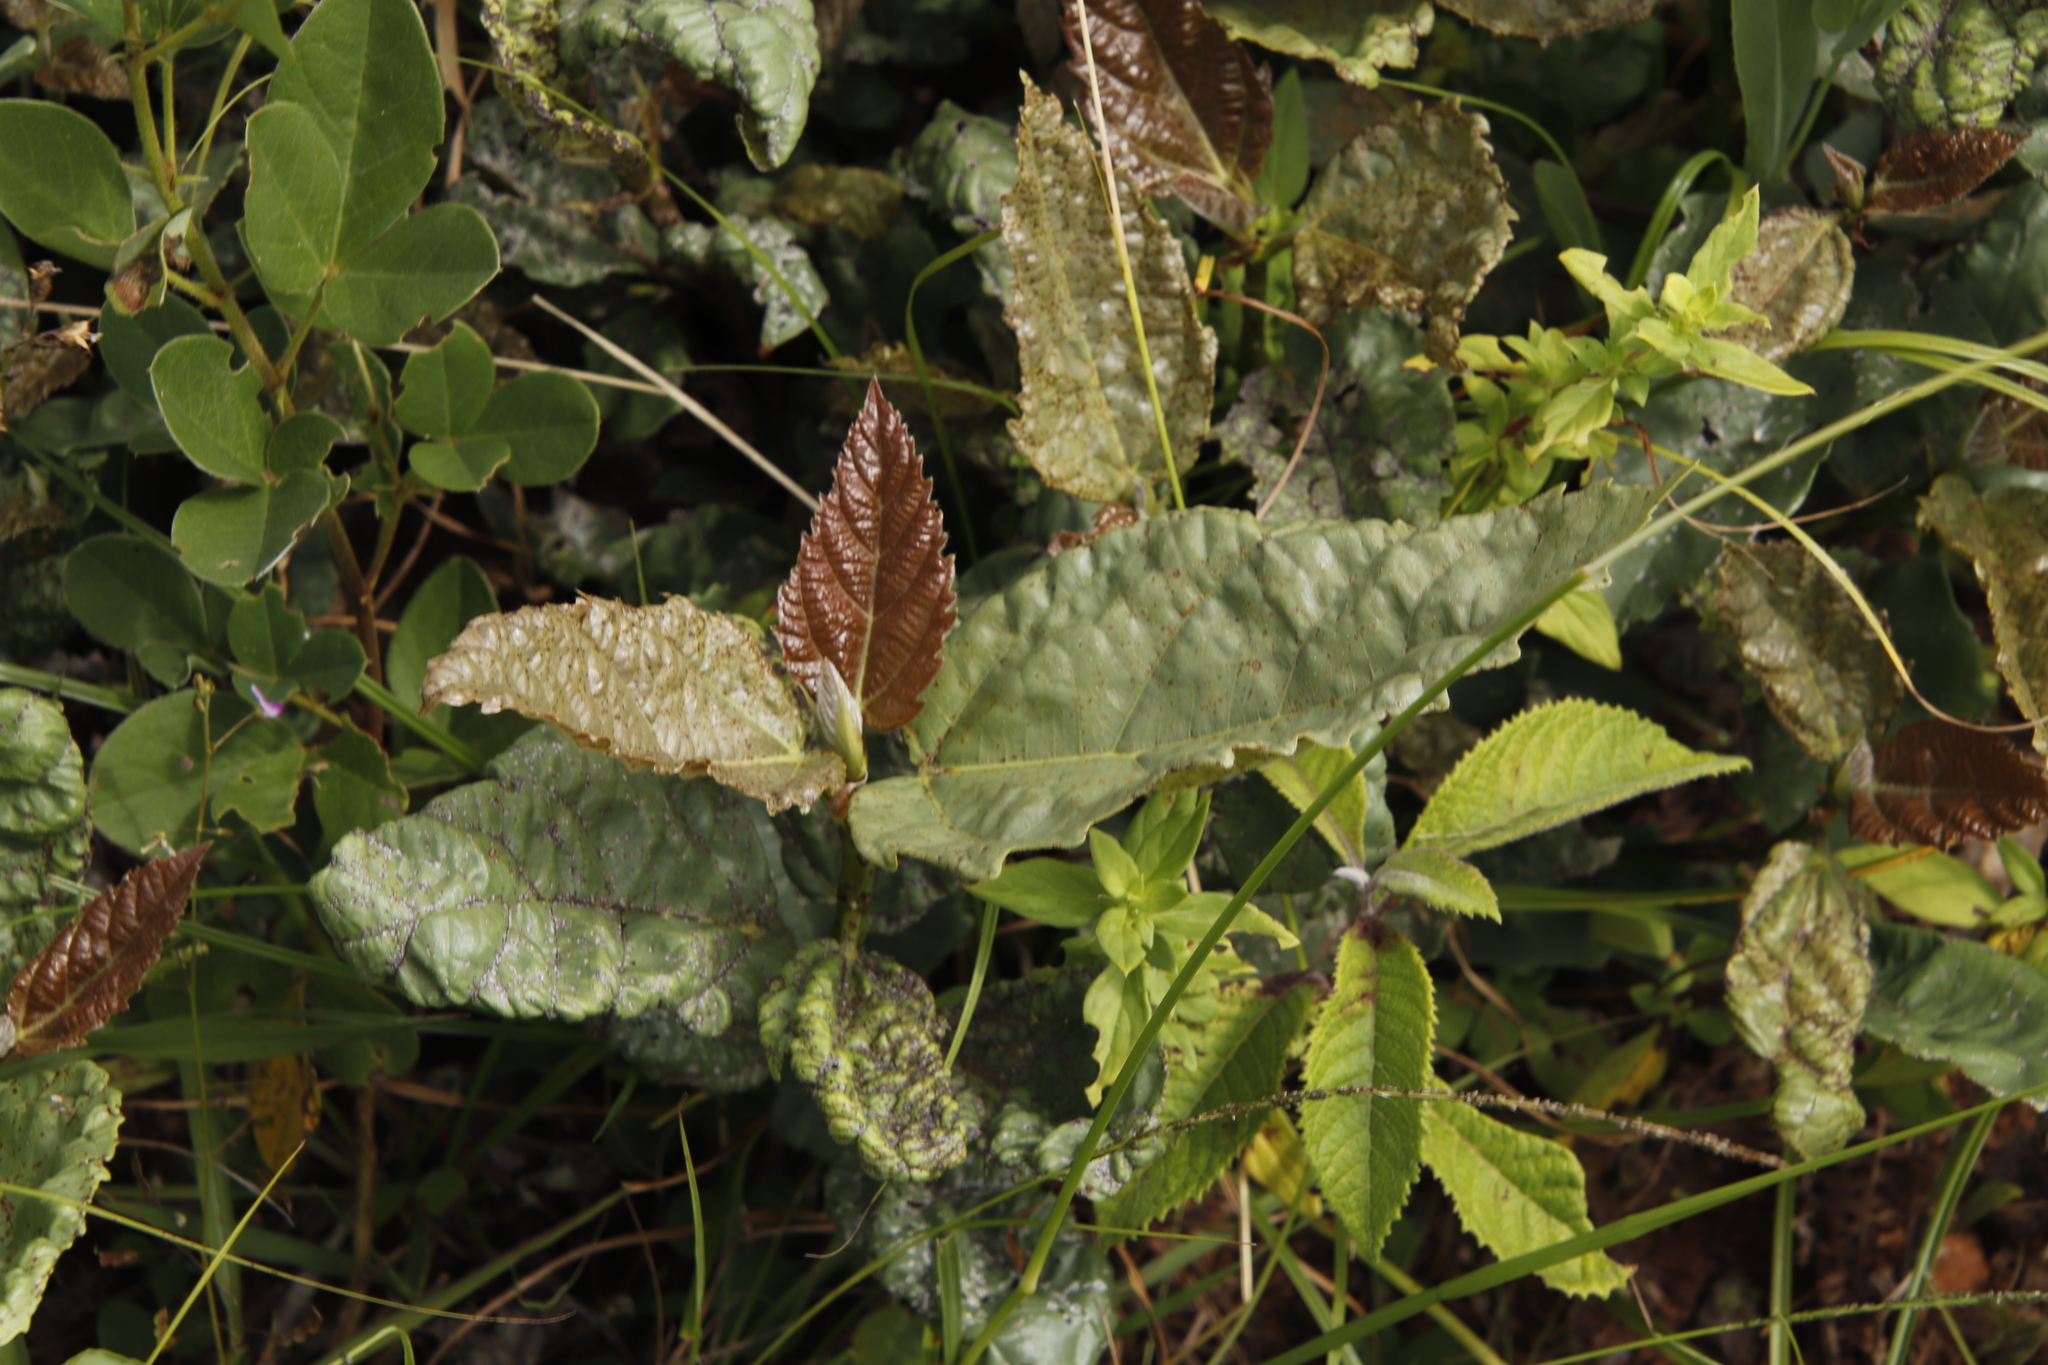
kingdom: Plantae
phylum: Tracheophyta
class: Magnoliopsida
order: Rosales
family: Moraceae
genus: Ficus
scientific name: Ficus sur
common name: Cape fig
